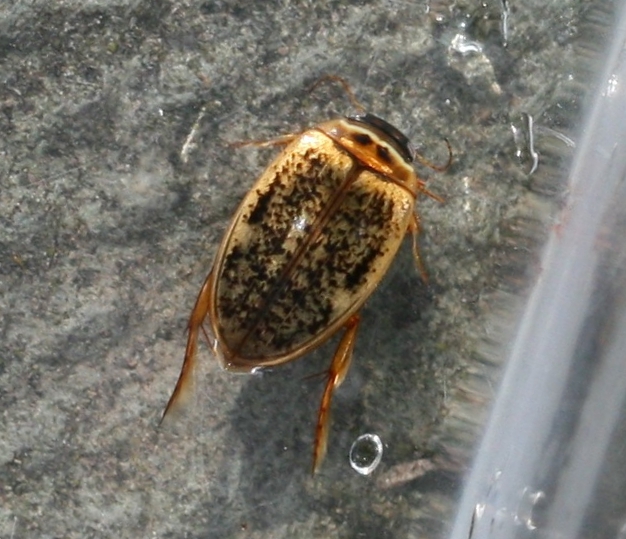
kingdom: Animalia
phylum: Arthropoda
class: Insecta
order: Coleoptera
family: Dytiscidae
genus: Agabus
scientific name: Agabus nebulosus
